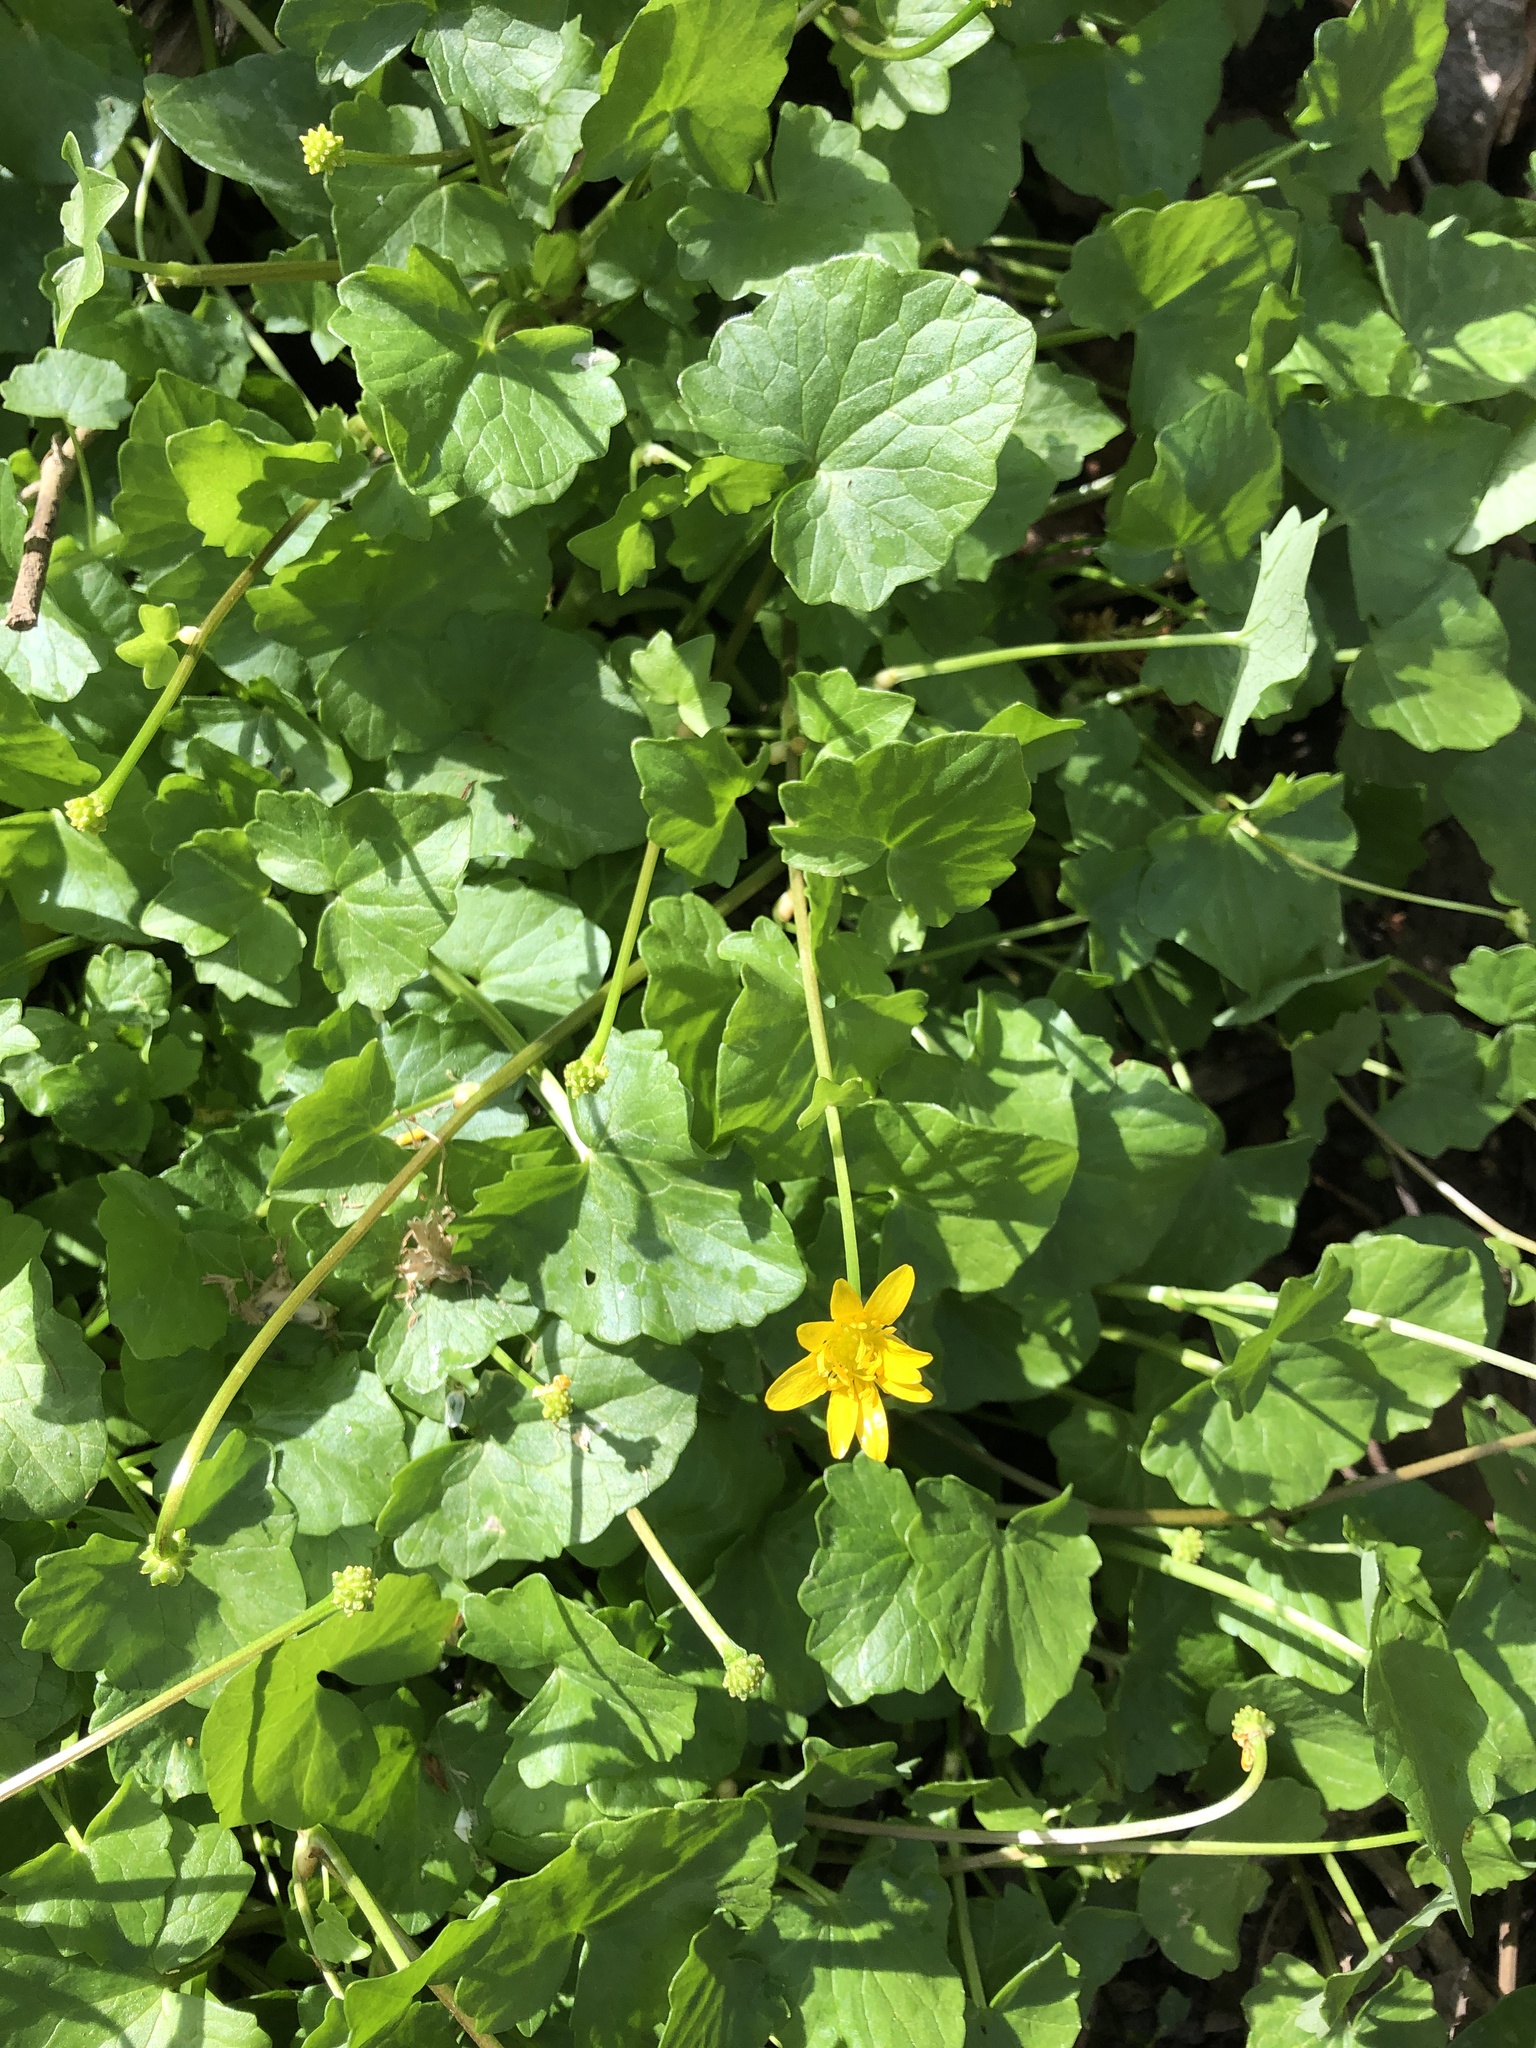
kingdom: Plantae
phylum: Tracheophyta
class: Magnoliopsida
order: Ranunculales
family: Ranunculaceae
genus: Ficaria
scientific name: Ficaria verna
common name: Lesser celandine
